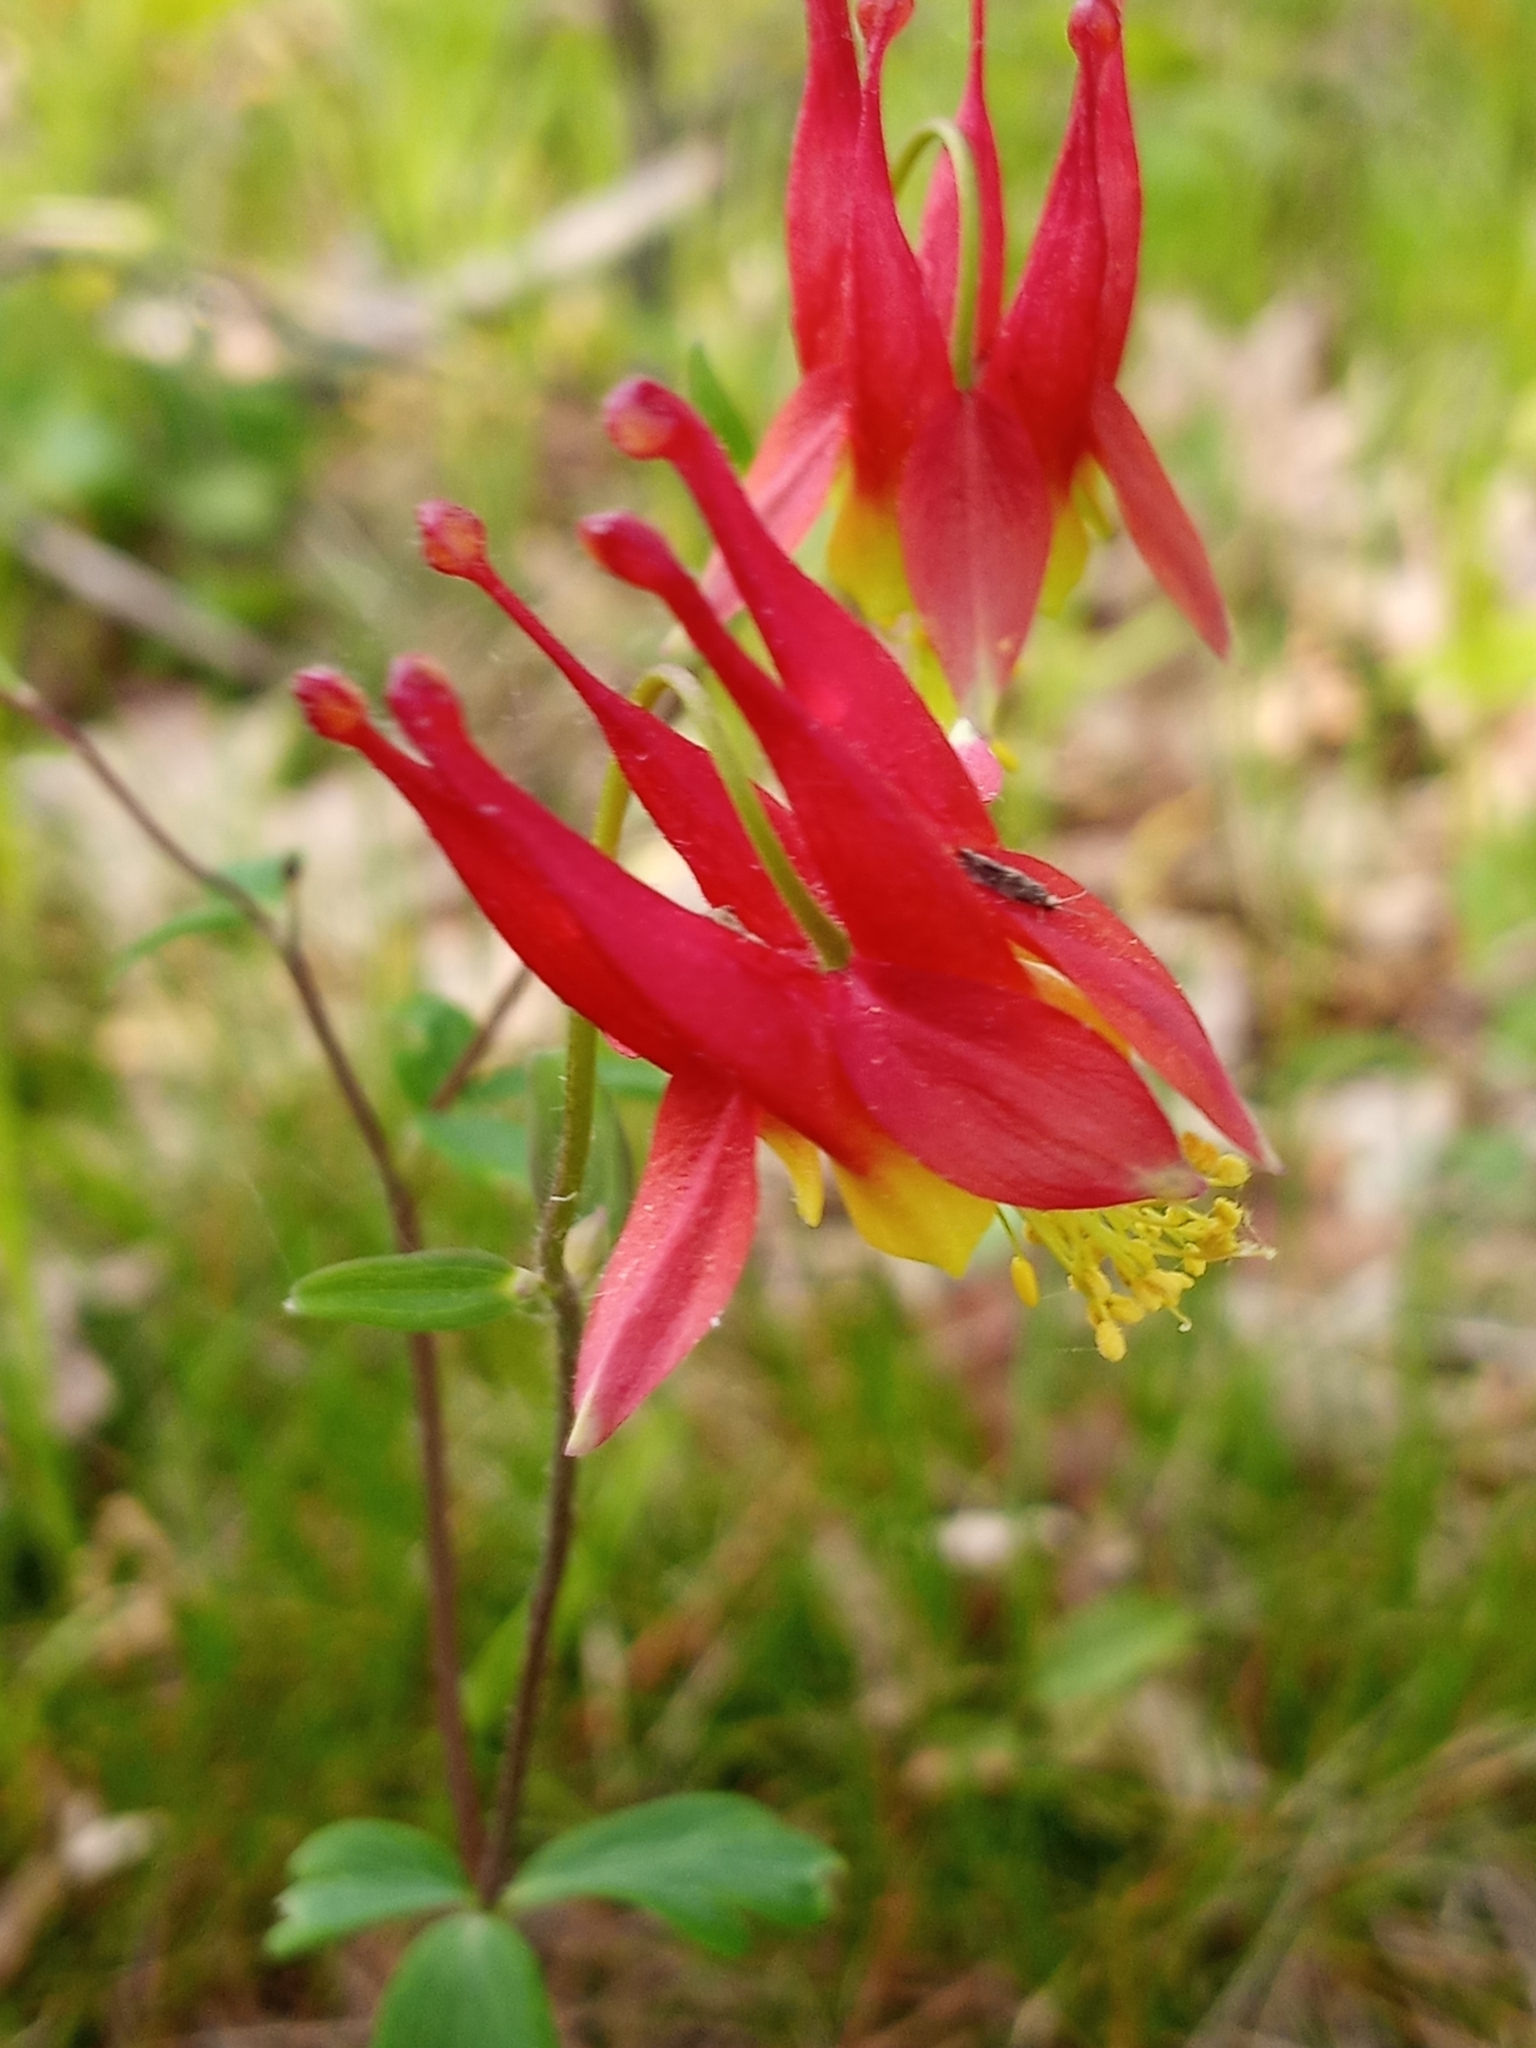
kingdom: Plantae
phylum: Tracheophyta
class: Magnoliopsida
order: Ranunculales
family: Ranunculaceae
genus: Aquilegia
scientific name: Aquilegia canadensis
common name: American columbine
